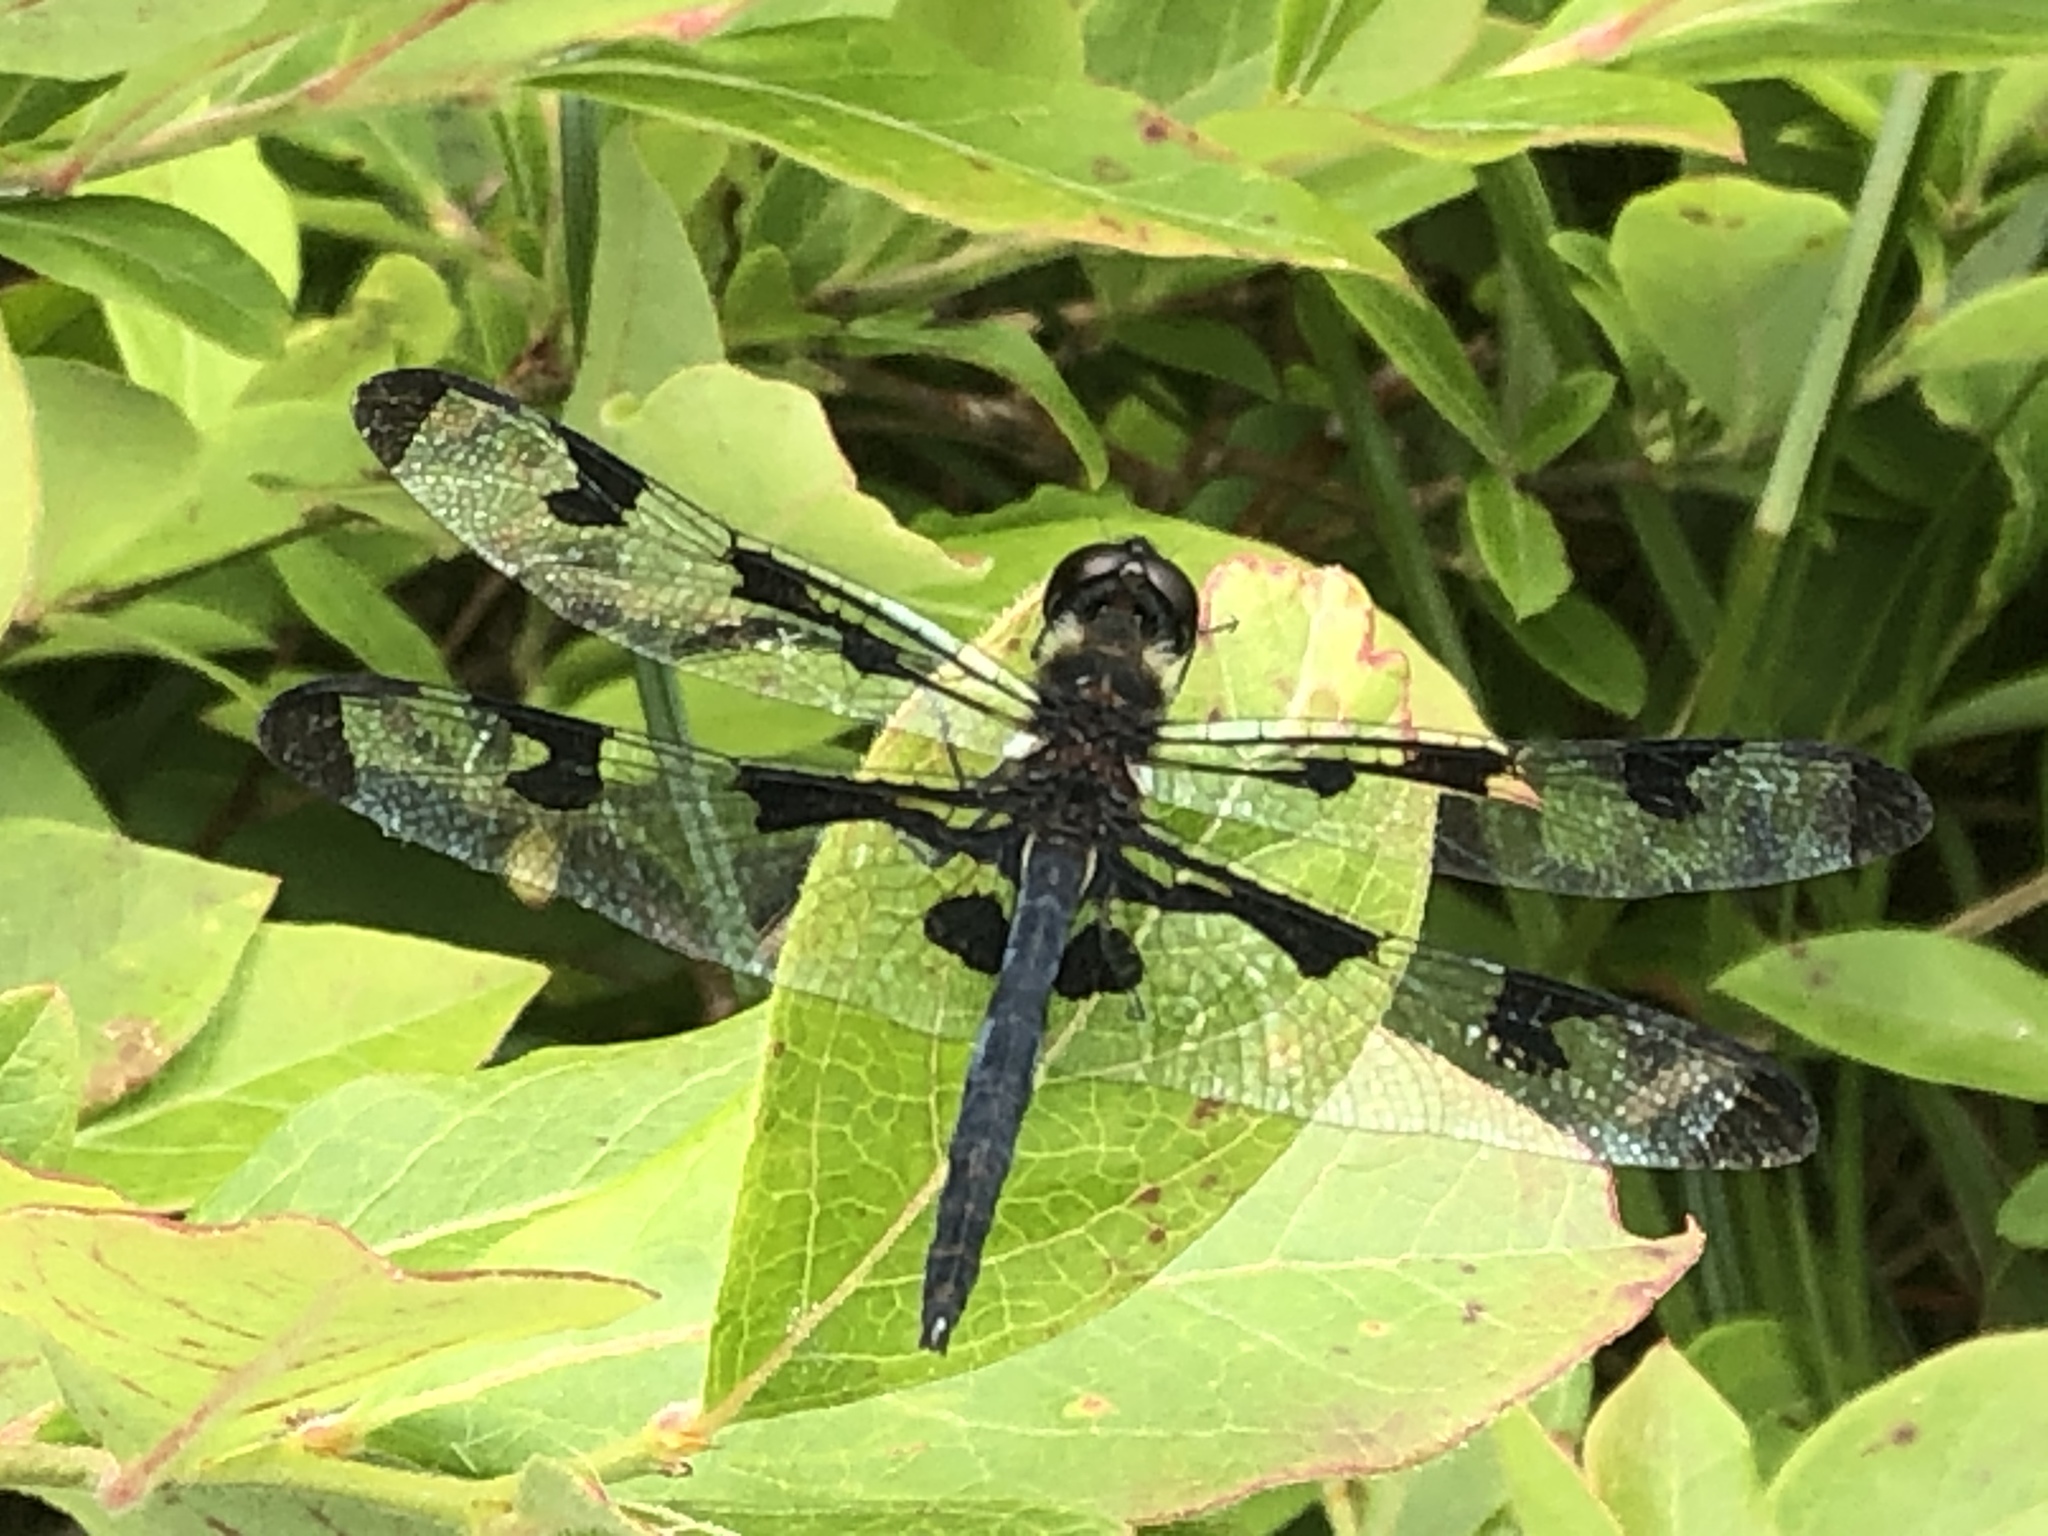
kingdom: Animalia
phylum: Arthropoda
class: Insecta
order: Odonata
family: Libellulidae
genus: Celithemis
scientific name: Celithemis fasciata
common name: Banded pennant
